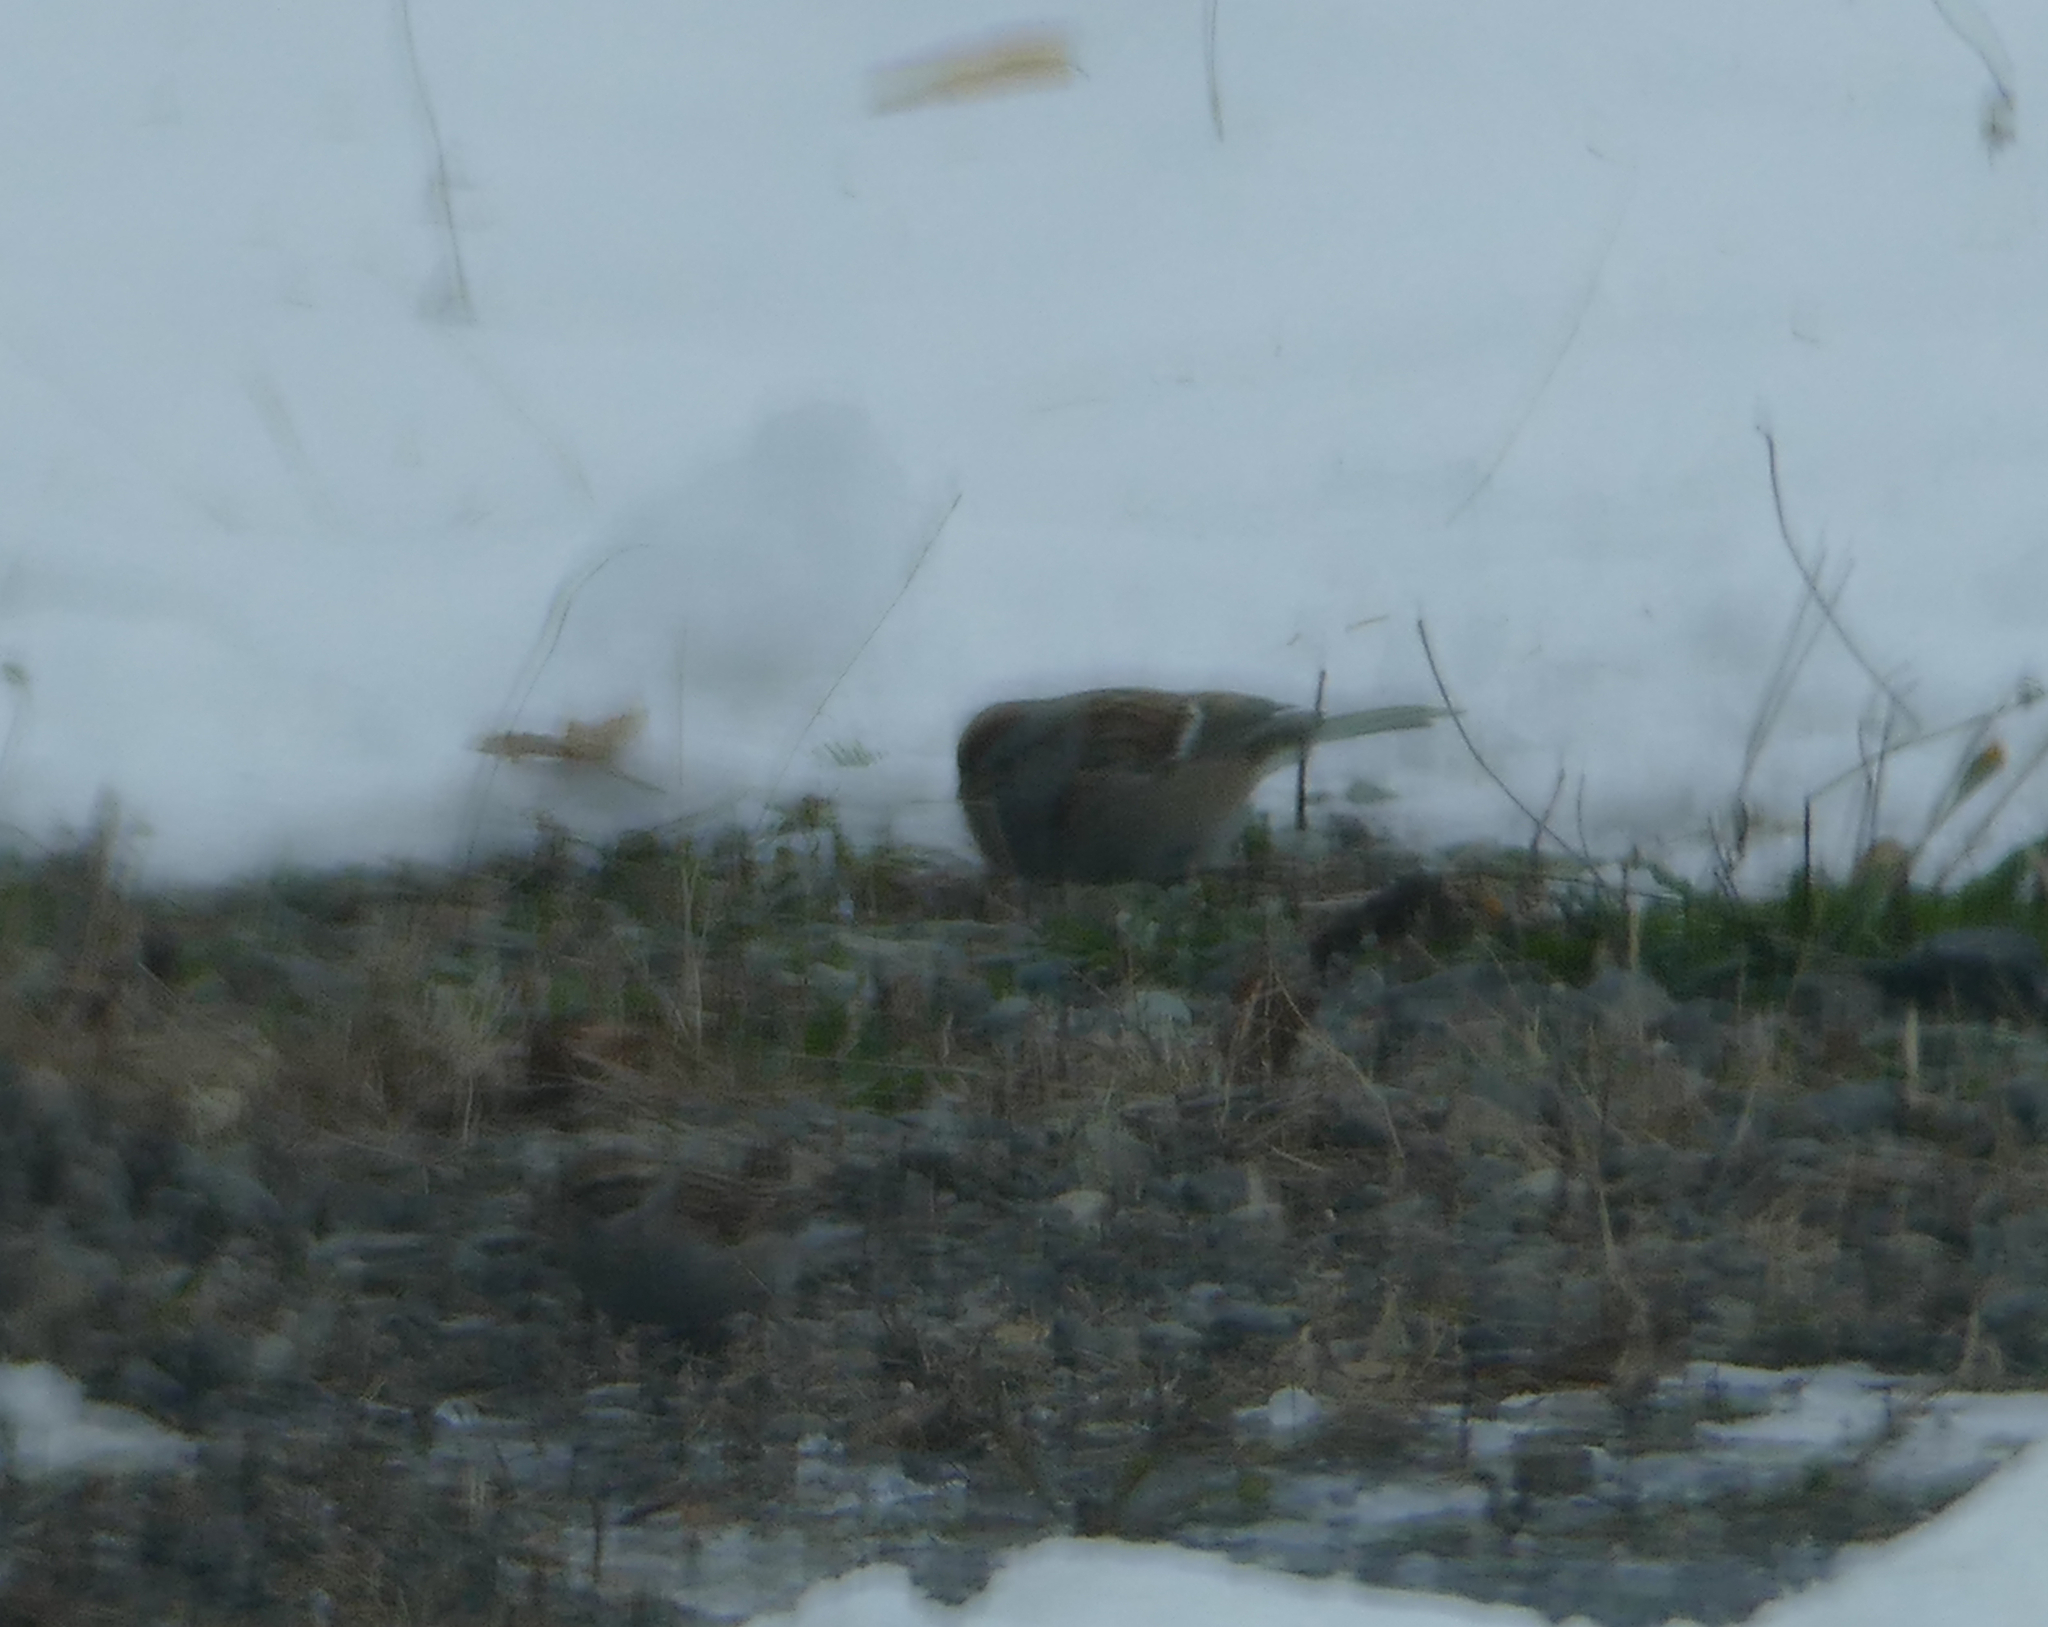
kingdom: Animalia
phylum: Chordata
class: Aves
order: Passeriformes
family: Passerellidae
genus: Spizelloides
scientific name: Spizelloides arborea
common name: American tree sparrow
